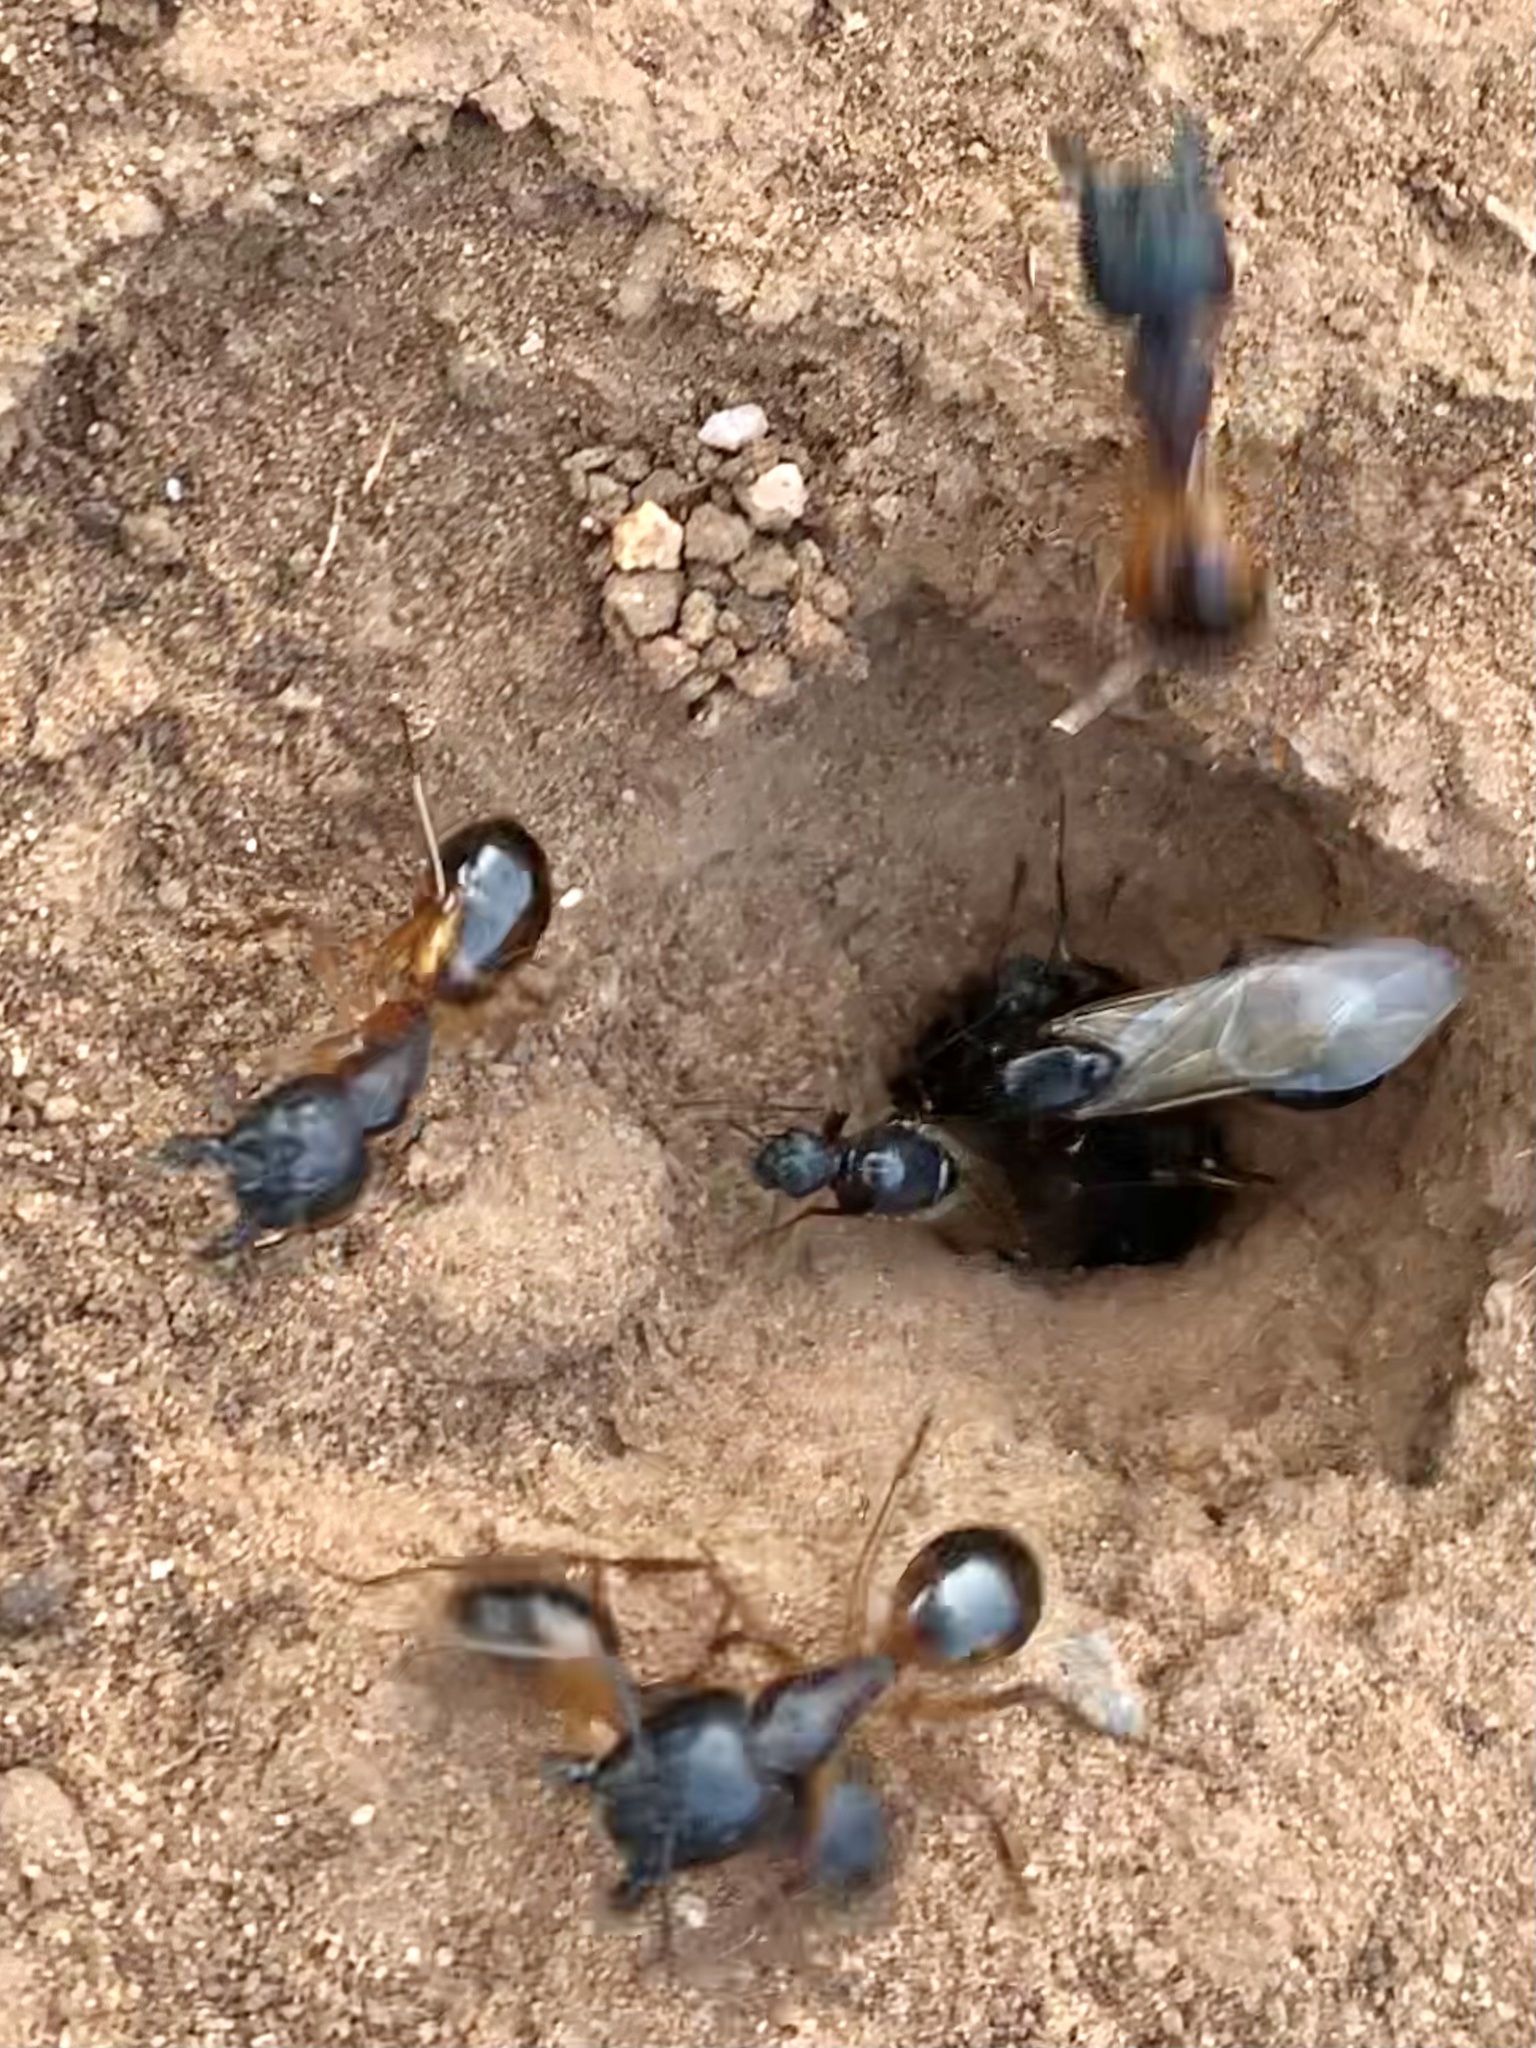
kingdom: Animalia
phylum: Arthropoda
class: Insecta
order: Hymenoptera
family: Formicidae
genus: Camponotus
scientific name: Camponotus sanctus
